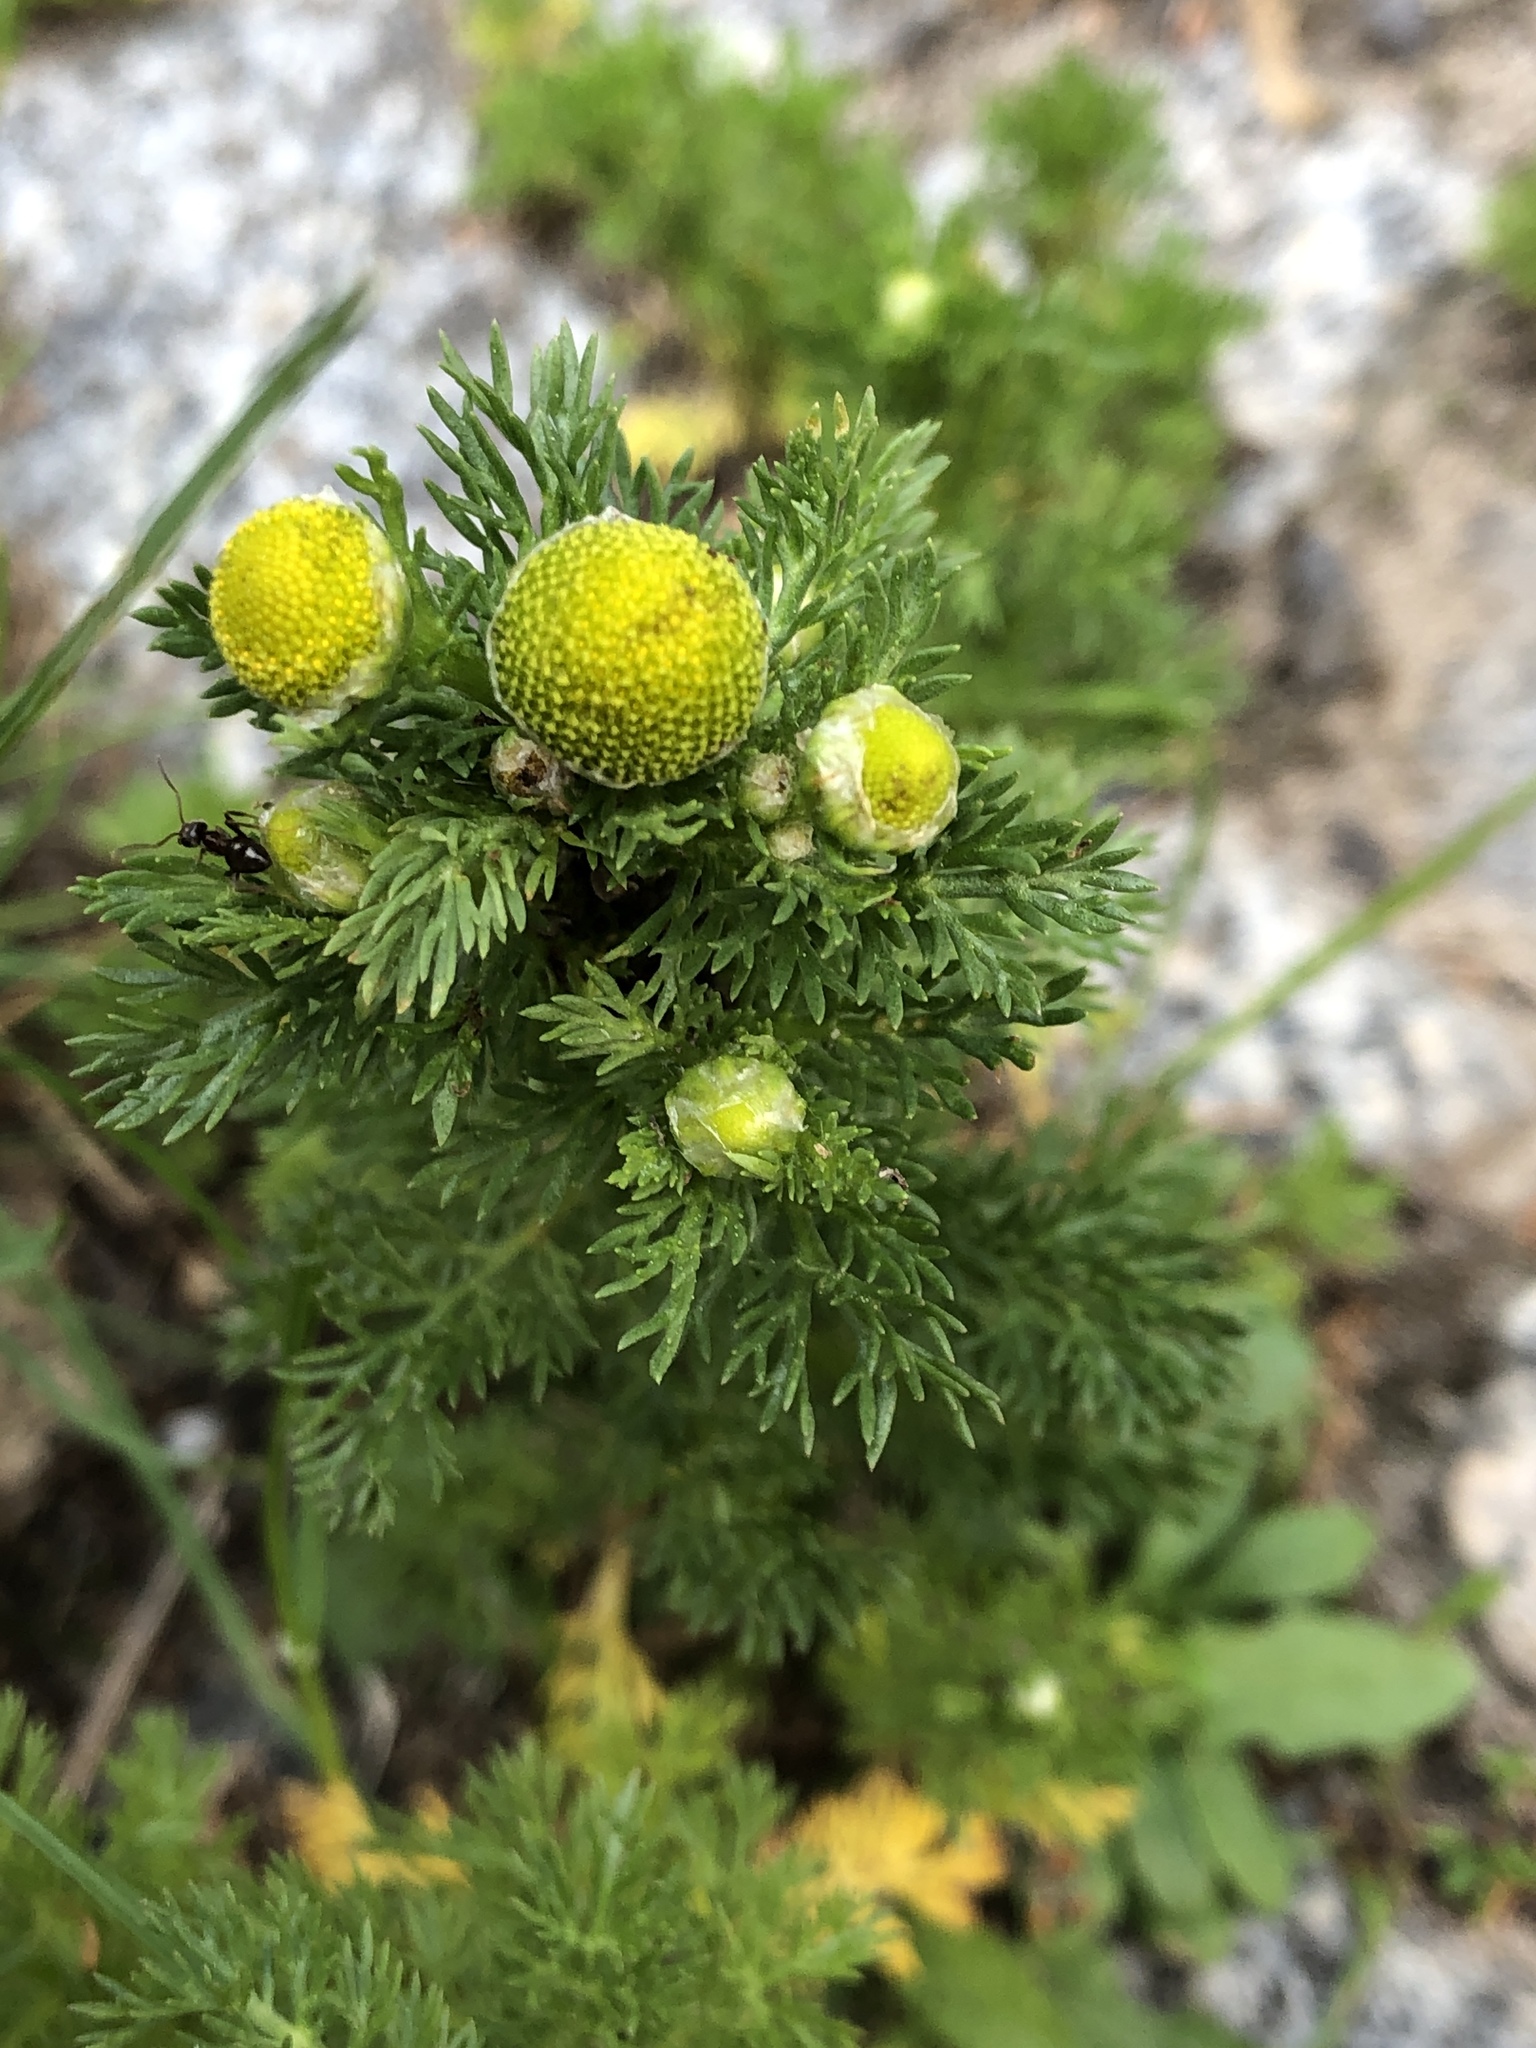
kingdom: Plantae
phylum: Tracheophyta
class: Magnoliopsida
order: Asterales
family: Asteraceae
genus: Matricaria
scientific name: Matricaria discoidea
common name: Disc mayweed
